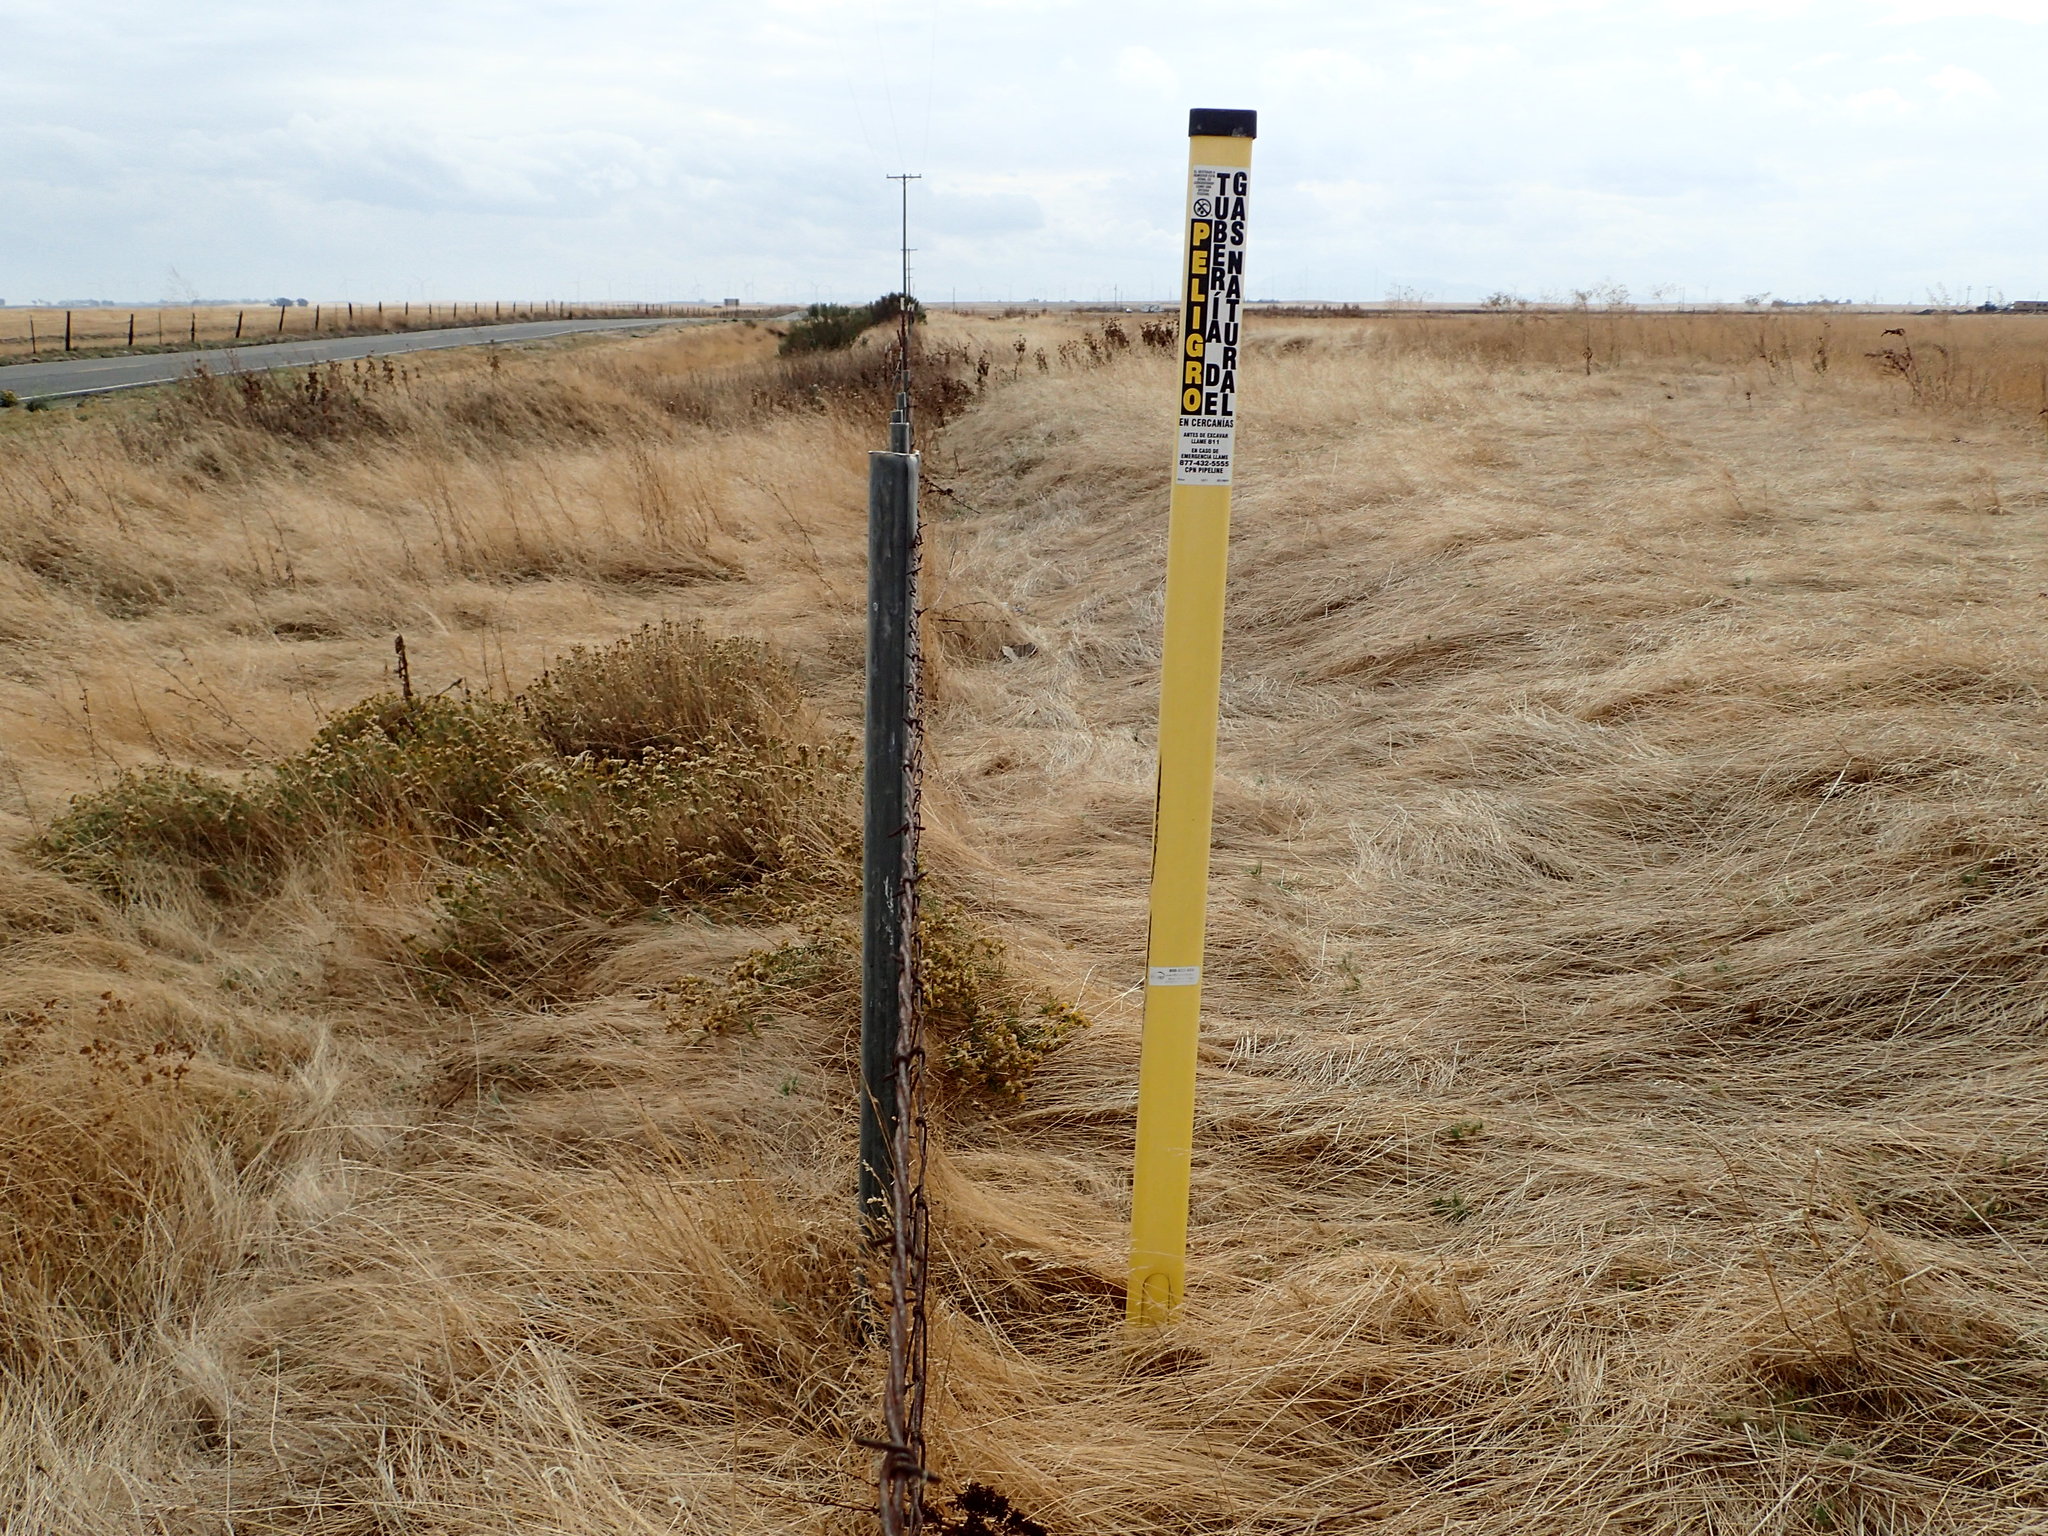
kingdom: Plantae
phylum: Tracheophyta
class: Magnoliopsida
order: Asterales
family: Asteraceae
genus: Isocoma
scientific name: Isocoma arguta
